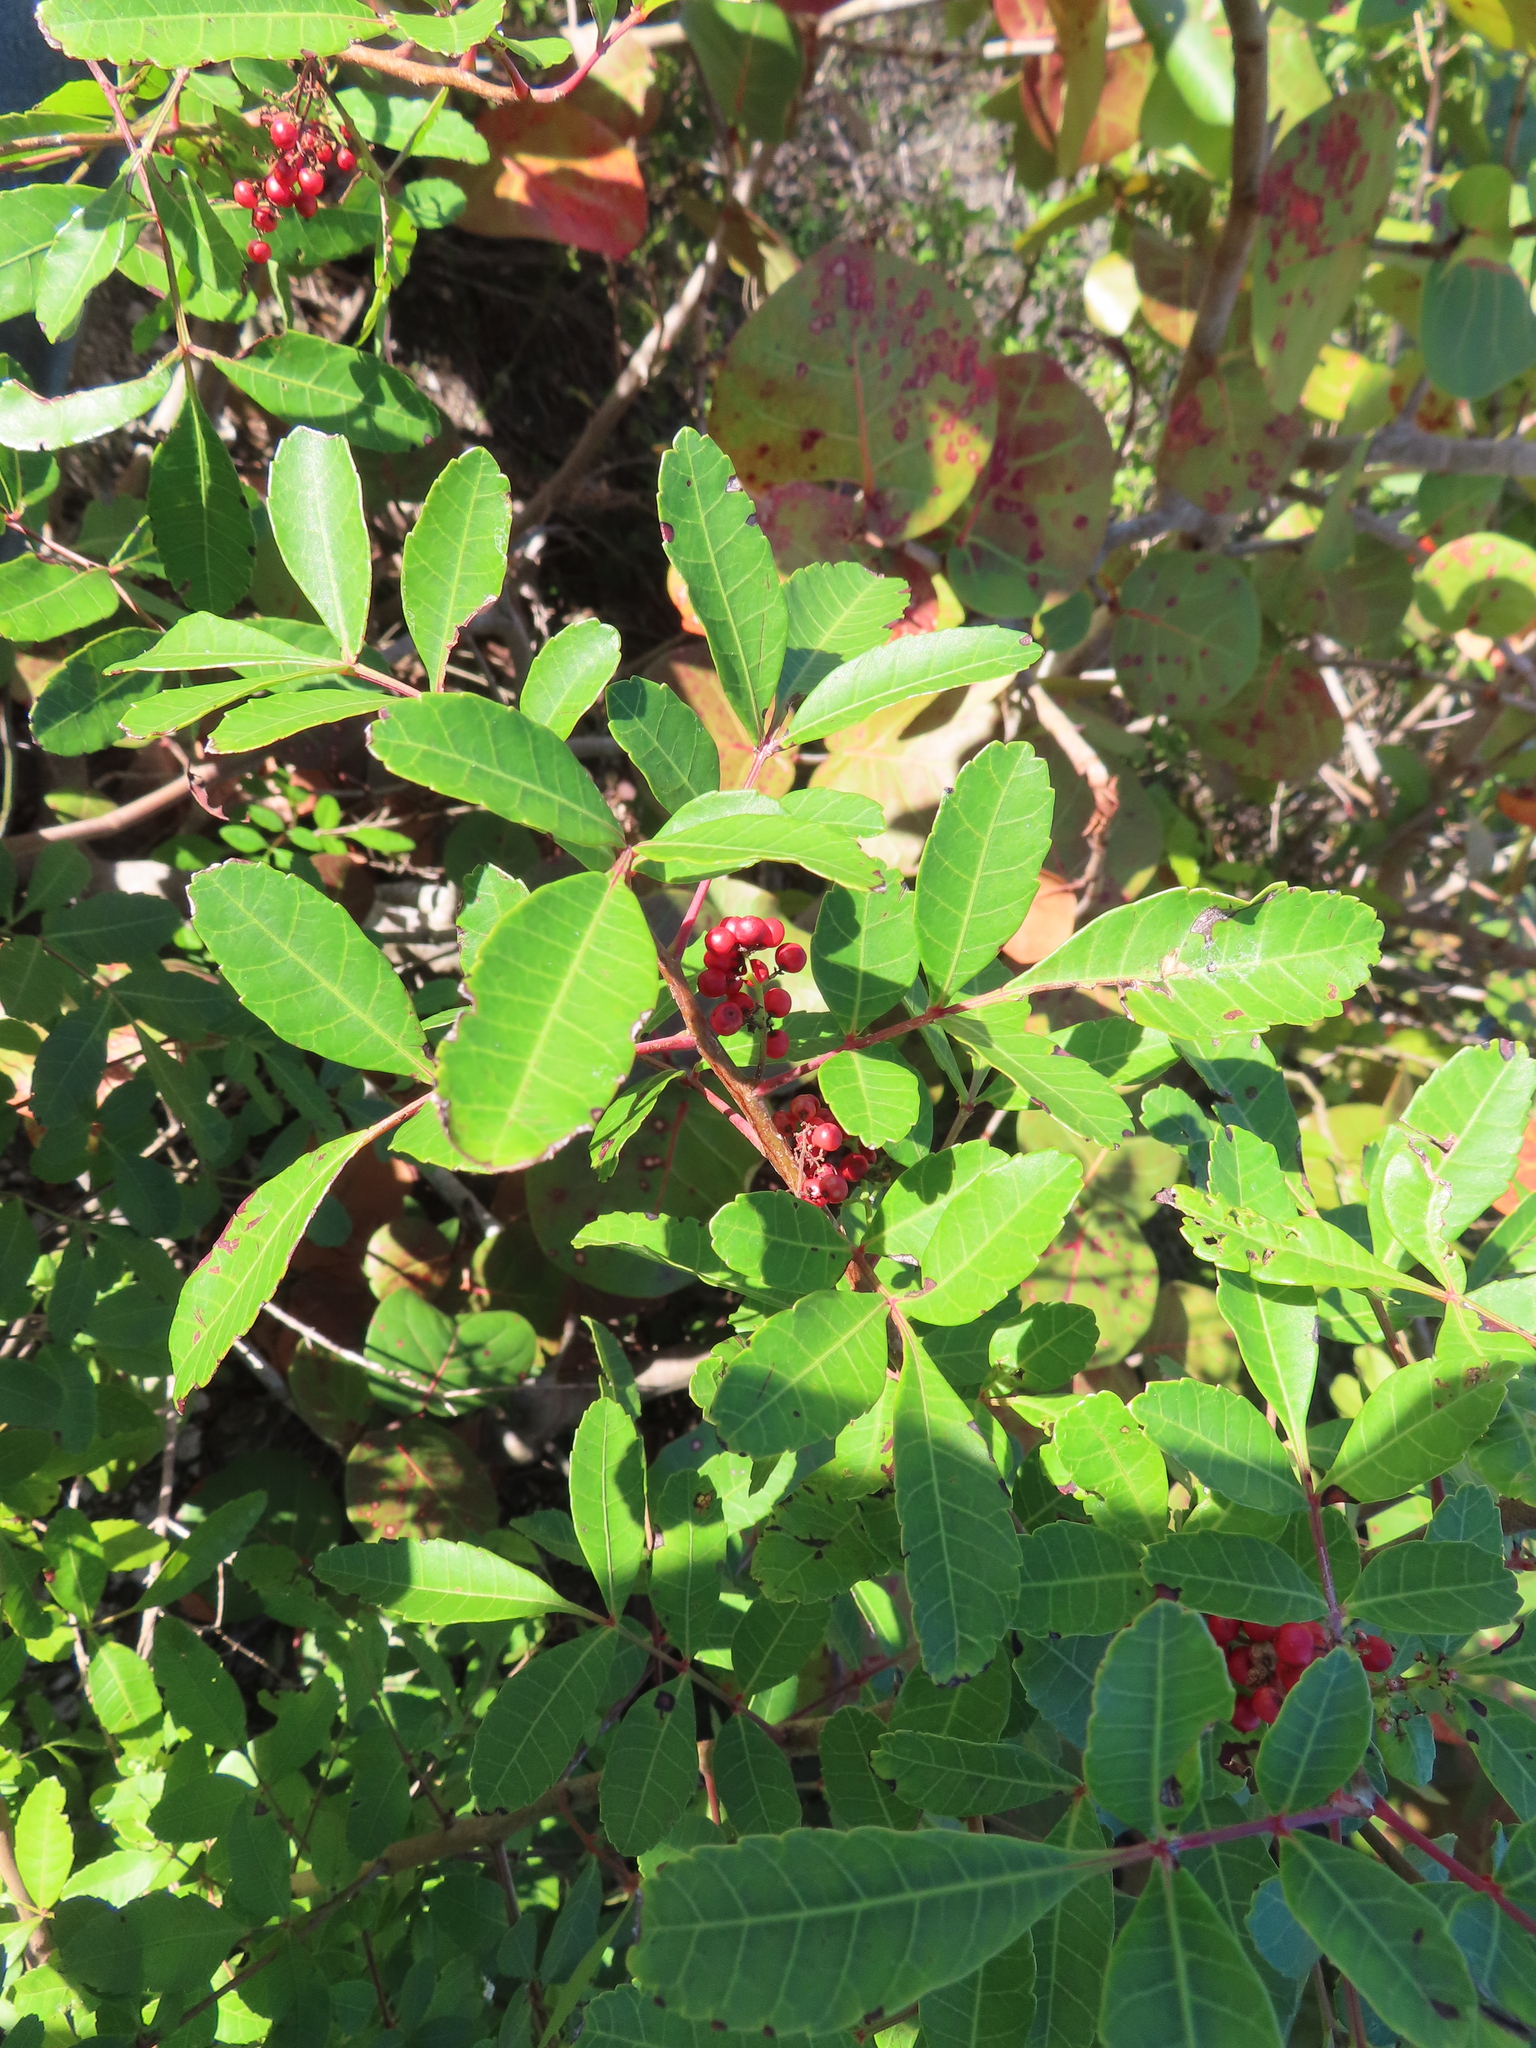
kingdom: Plantae
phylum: Tracheophyta
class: Magnoliopsida
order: Sapindales
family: Anacardiaceae
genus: Schinus
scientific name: Schinus terebinthifolia
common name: Brazilian peppertree
